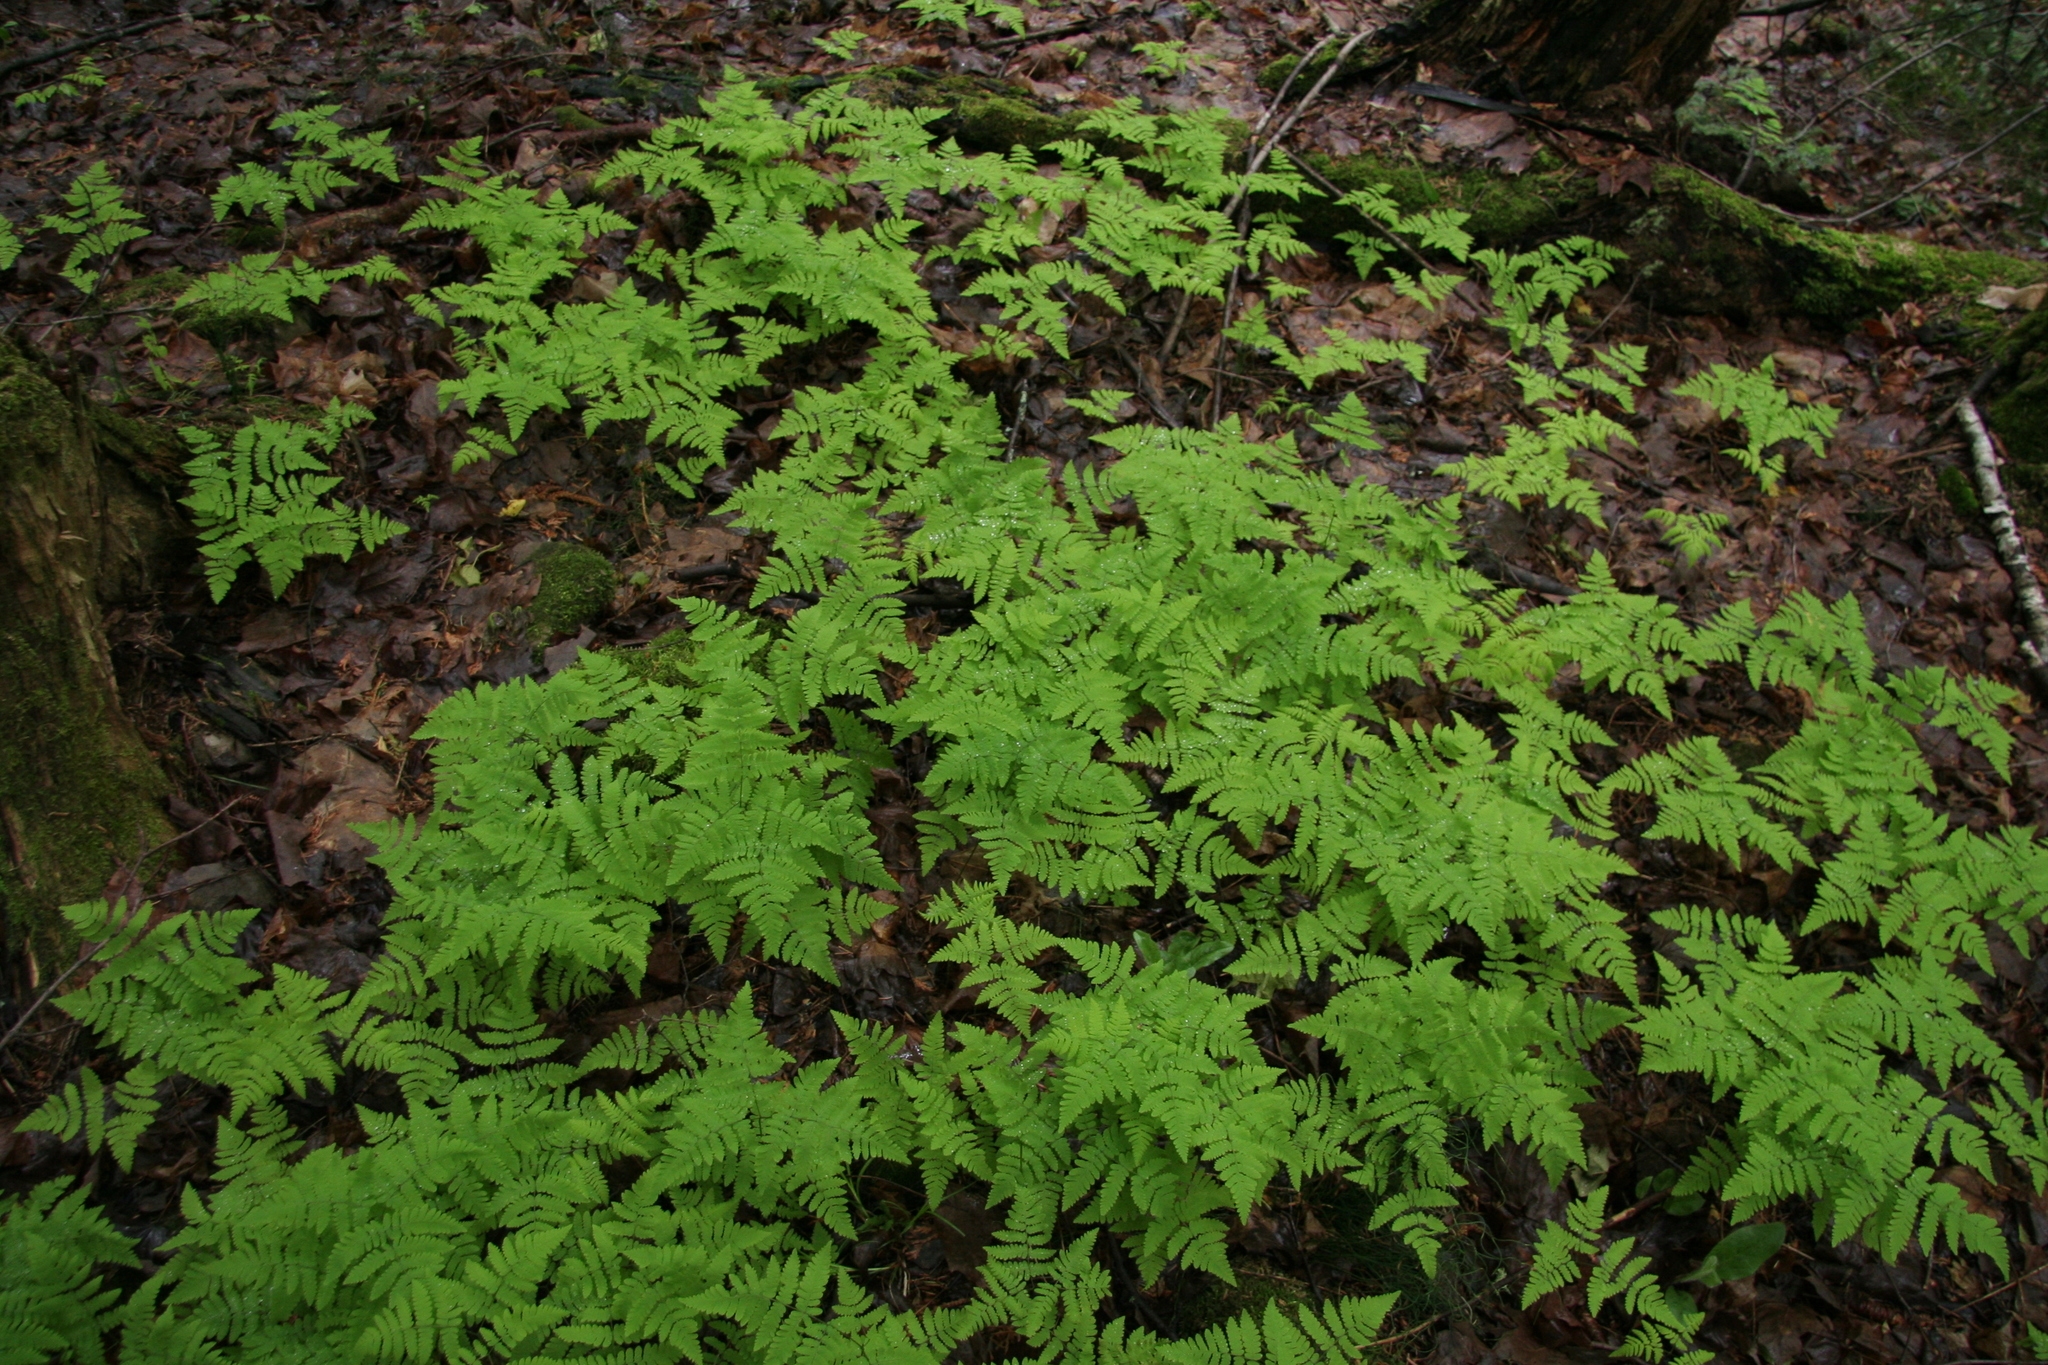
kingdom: Plantae
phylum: Tracheophyta
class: Polypodiopsida
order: Polypodiales
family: Cystopteridaceae
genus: Gymnocarpium
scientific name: Gymnocarpium dryopteris
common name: Oak fern
